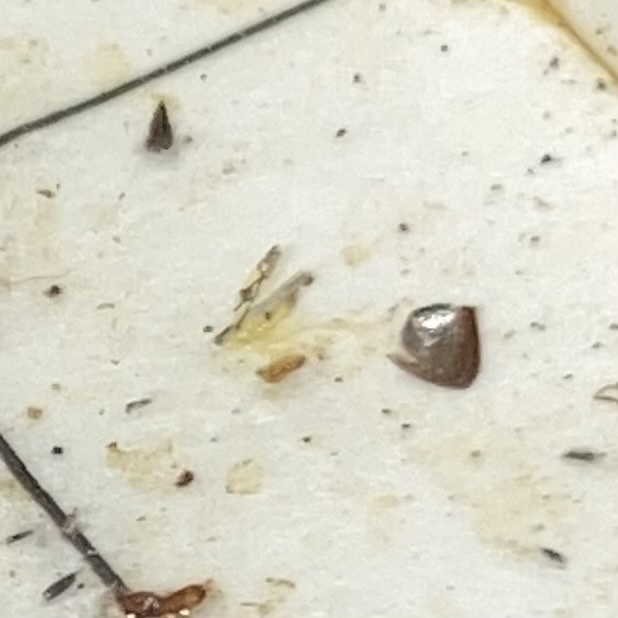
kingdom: Animalia
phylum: Arthropoda
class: Insecta
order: Hemiptera
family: Cicadellidae
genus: Protalebrella
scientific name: Protalebrella brasiliensis
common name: Brasilian leafhopper
